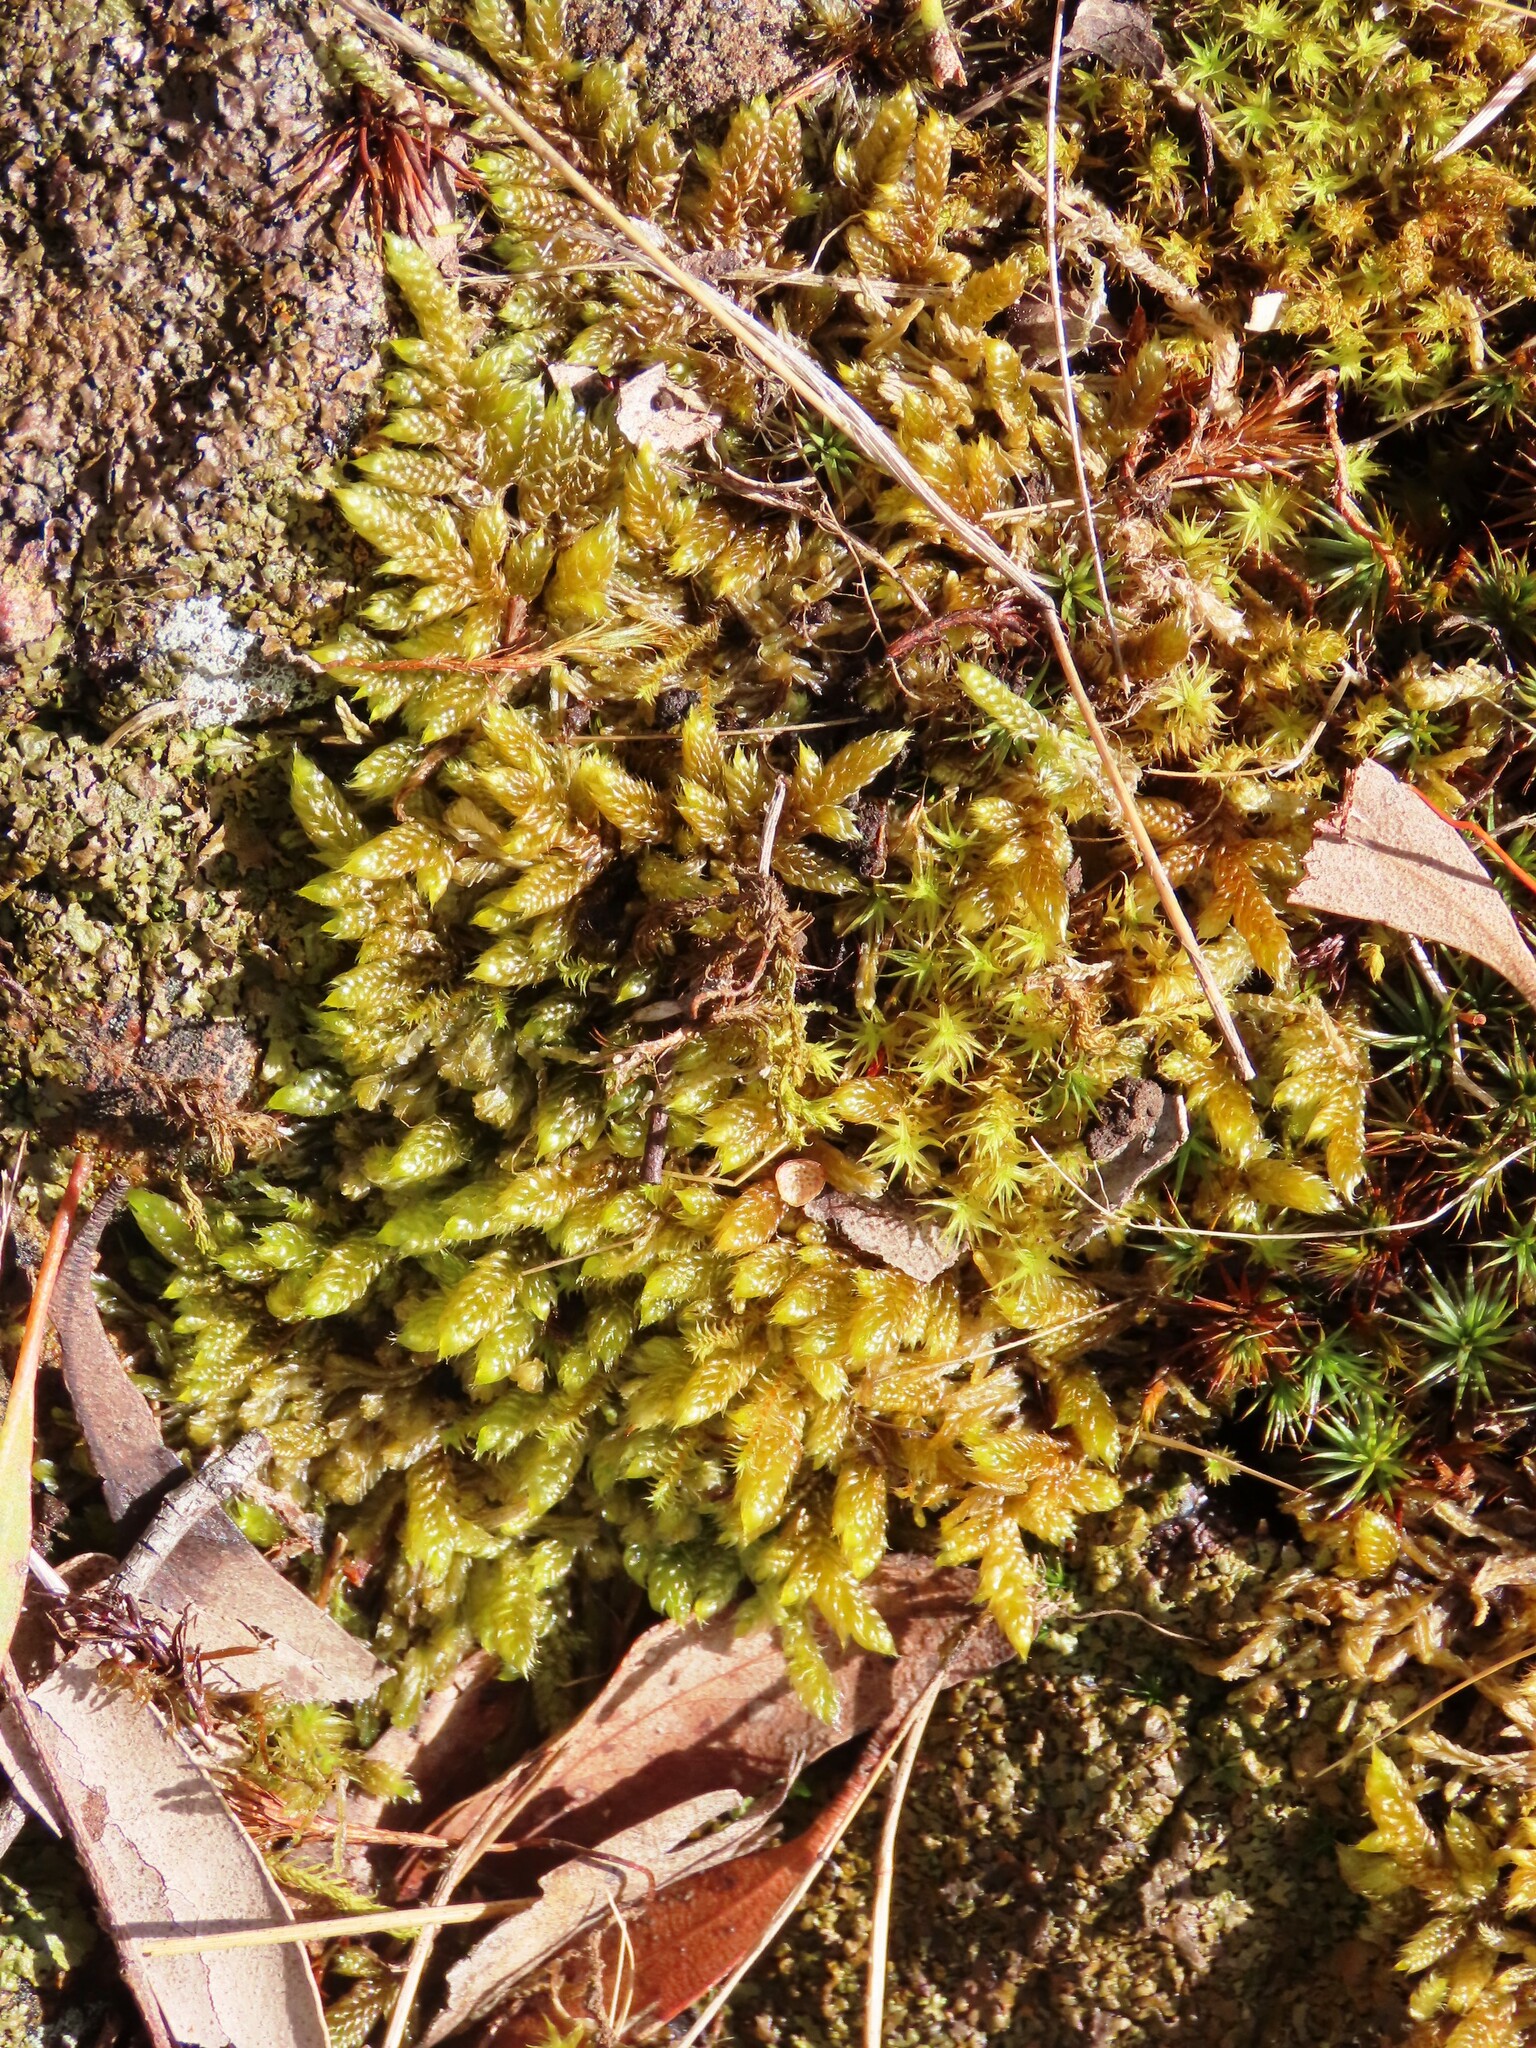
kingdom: Plantae
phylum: Bryophyta
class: Bryopsida
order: Hypnales
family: Hypnaceae
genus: Hypnum
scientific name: Hypnum cupressiforme
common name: Cypress-leaved plait-moss
